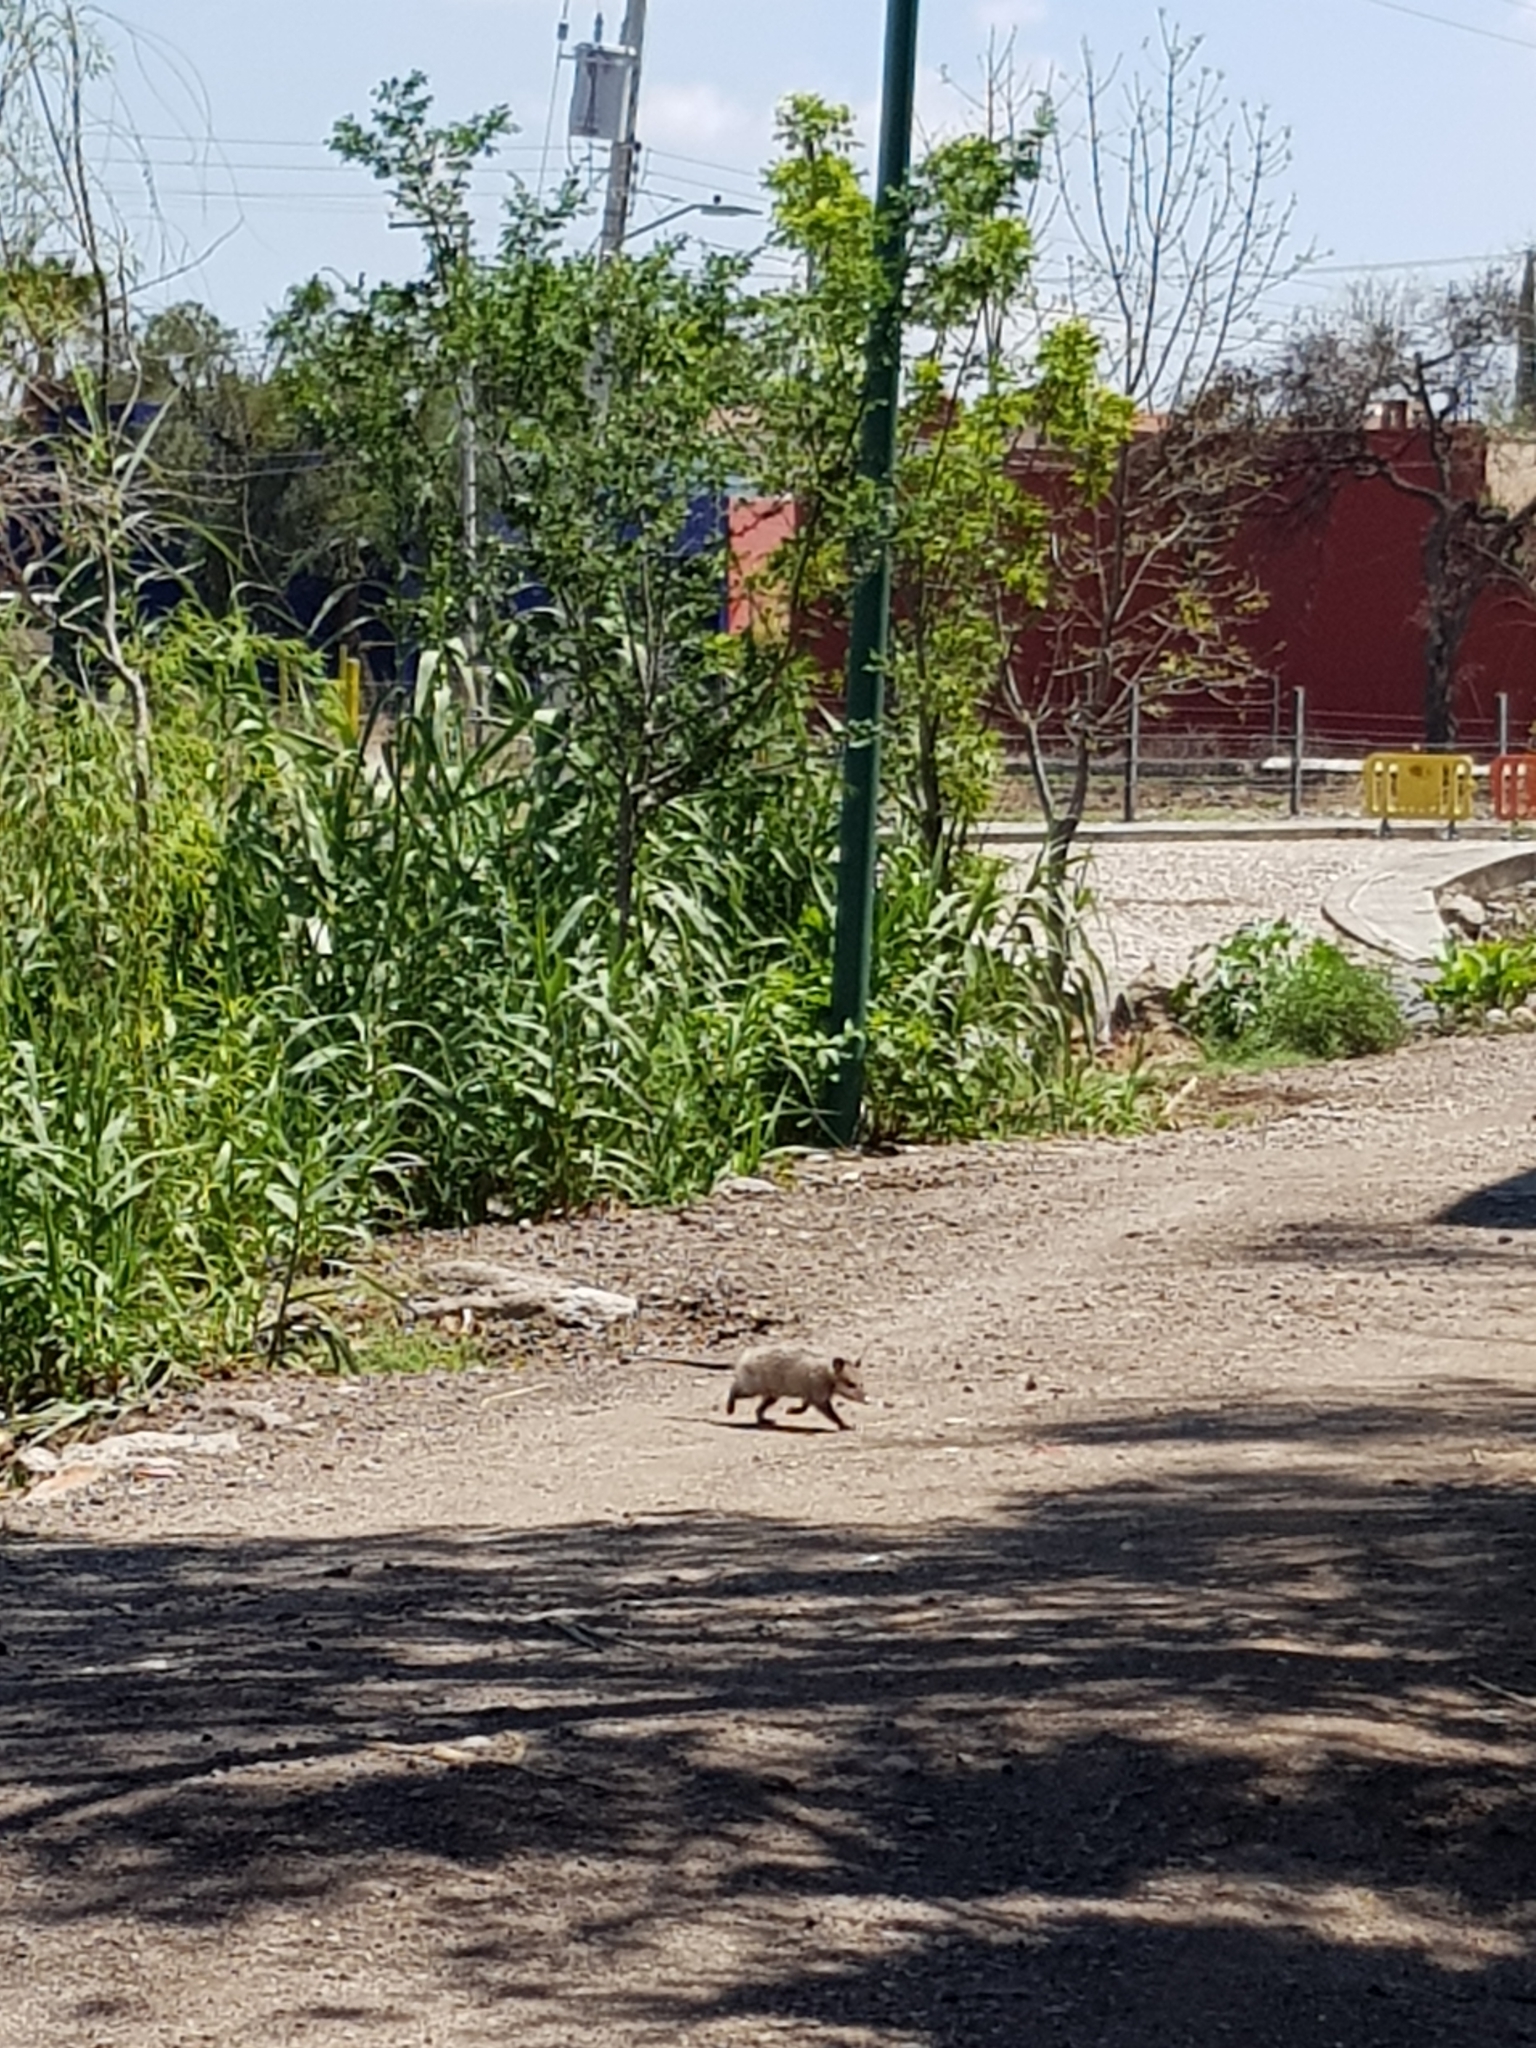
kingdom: Animalia
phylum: Chordata
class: Mammalia
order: Didelphimorphia
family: Didelphidae
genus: Didelphis
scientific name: Didelphis virginiana
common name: Virginia opossum
